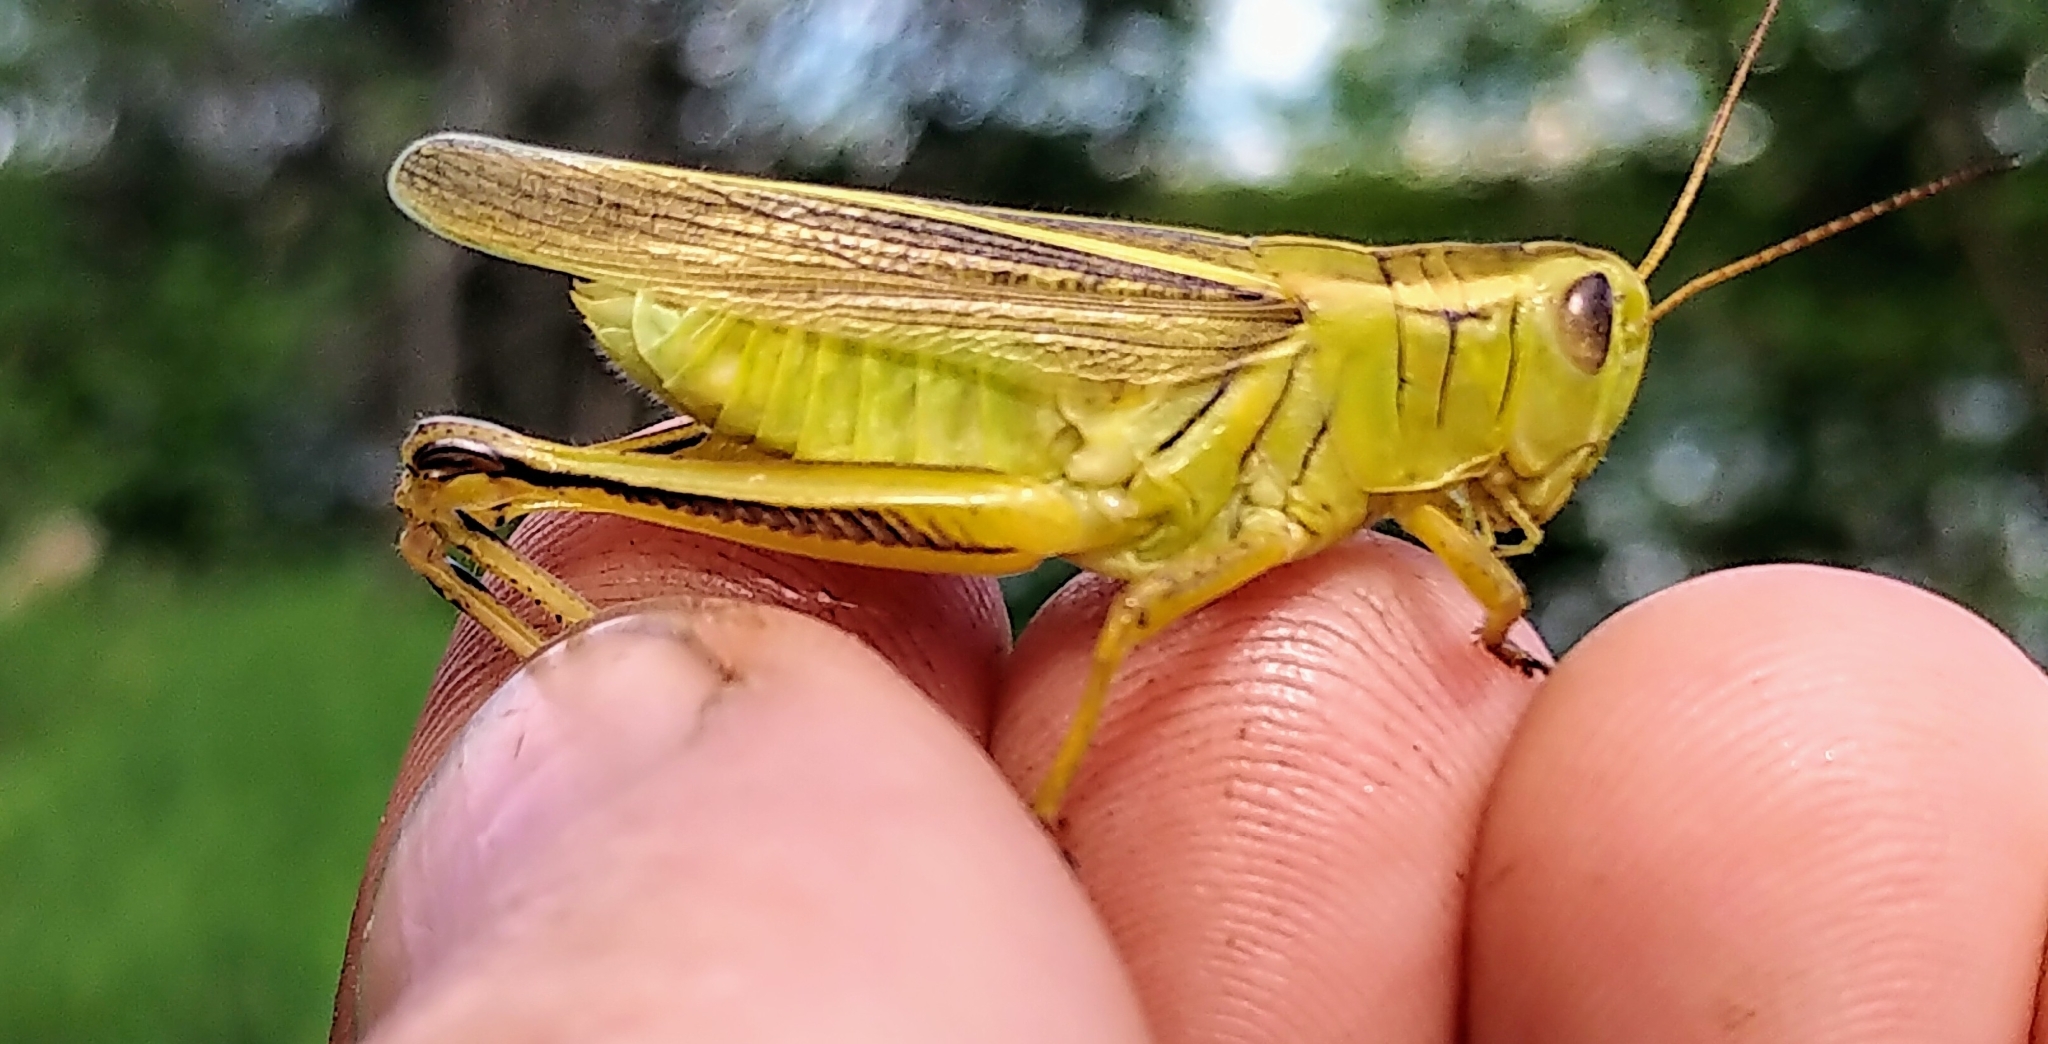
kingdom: Animalia
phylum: Arthropoda
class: Insecta
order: Orthoptera
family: Acrididae
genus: Melanoplus
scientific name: Melanoplus bivittatus
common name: Two-striped grasshopper
